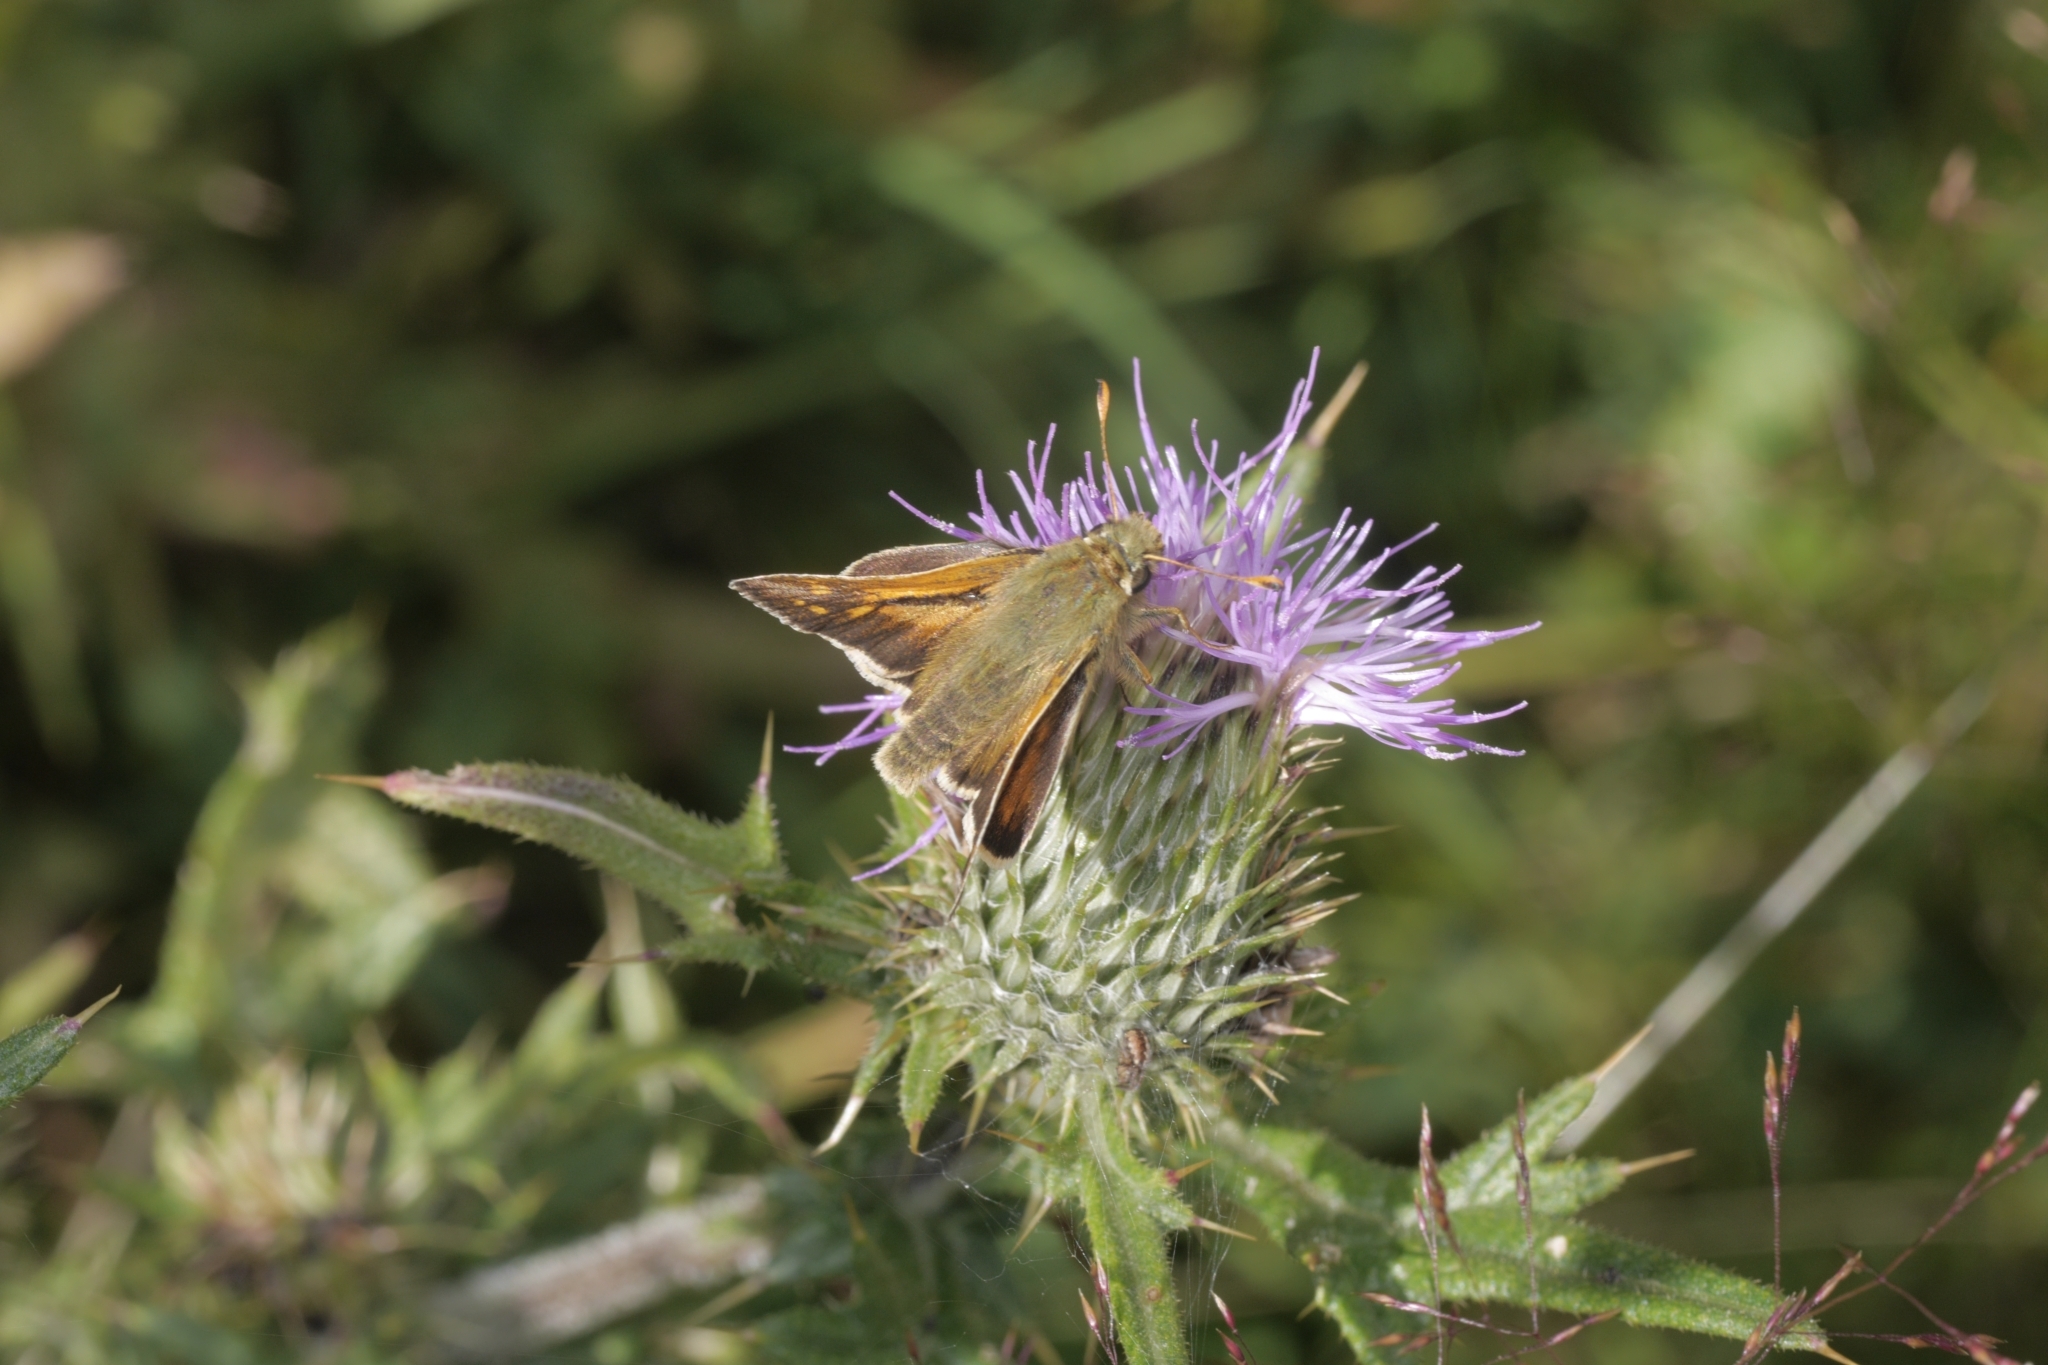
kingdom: Plantae
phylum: Tracheophyta
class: Magnoliopsida
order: Asterales
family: Asteraceae
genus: Cirsium
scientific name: Cirsium vulgare
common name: Bull thistle
